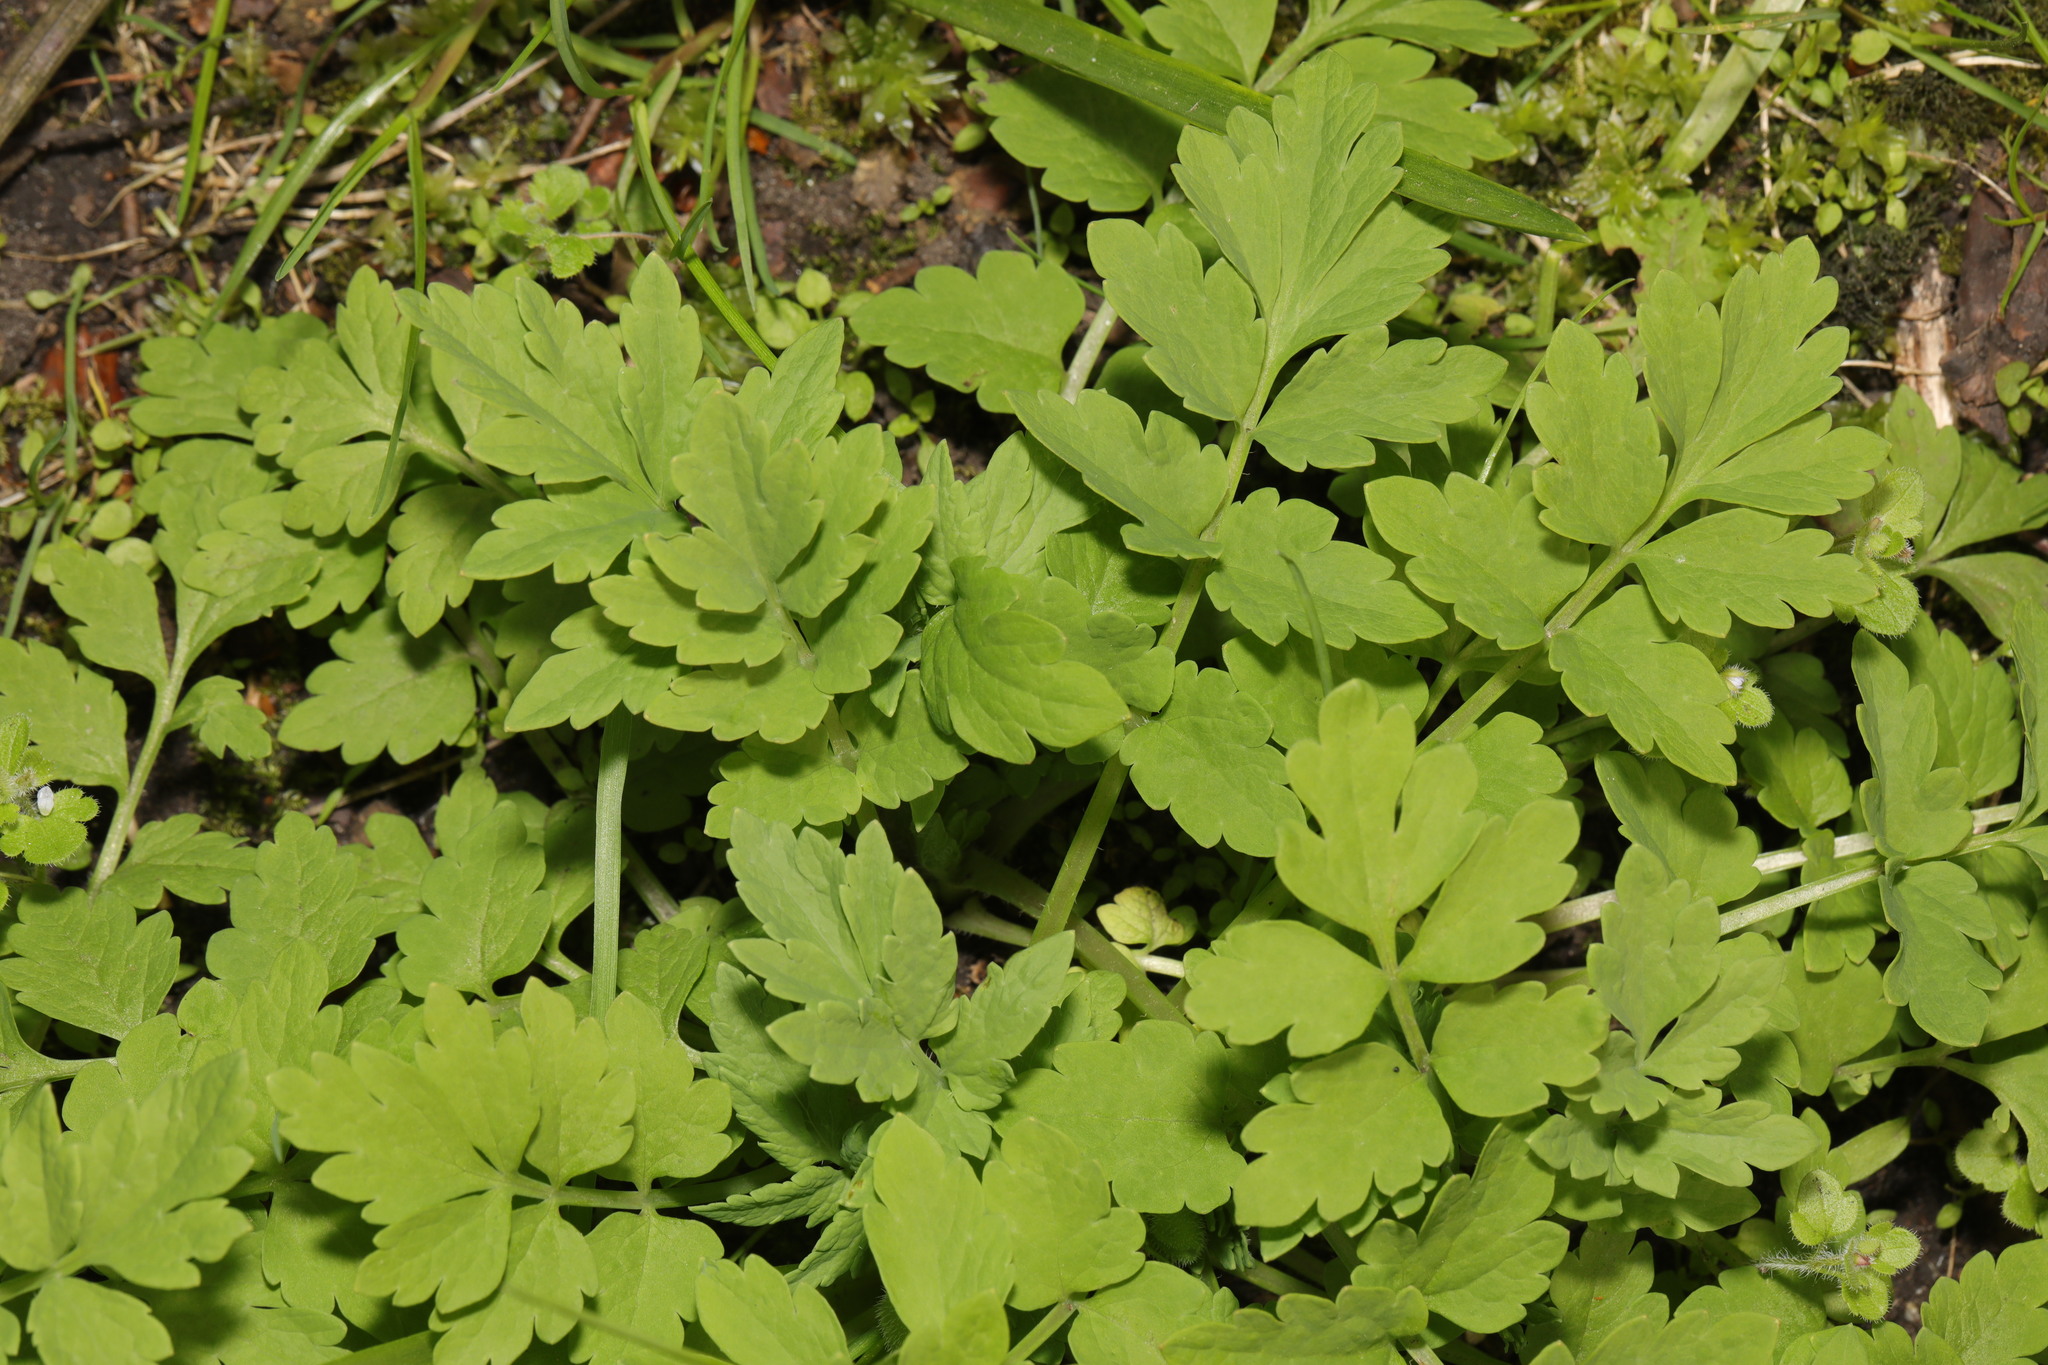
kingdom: Plantae
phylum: Tracheophyta
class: Magnoliopsida
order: Ranunculales
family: Papaveraceae
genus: Papaver
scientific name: Papaver cambricum
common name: Poppy
